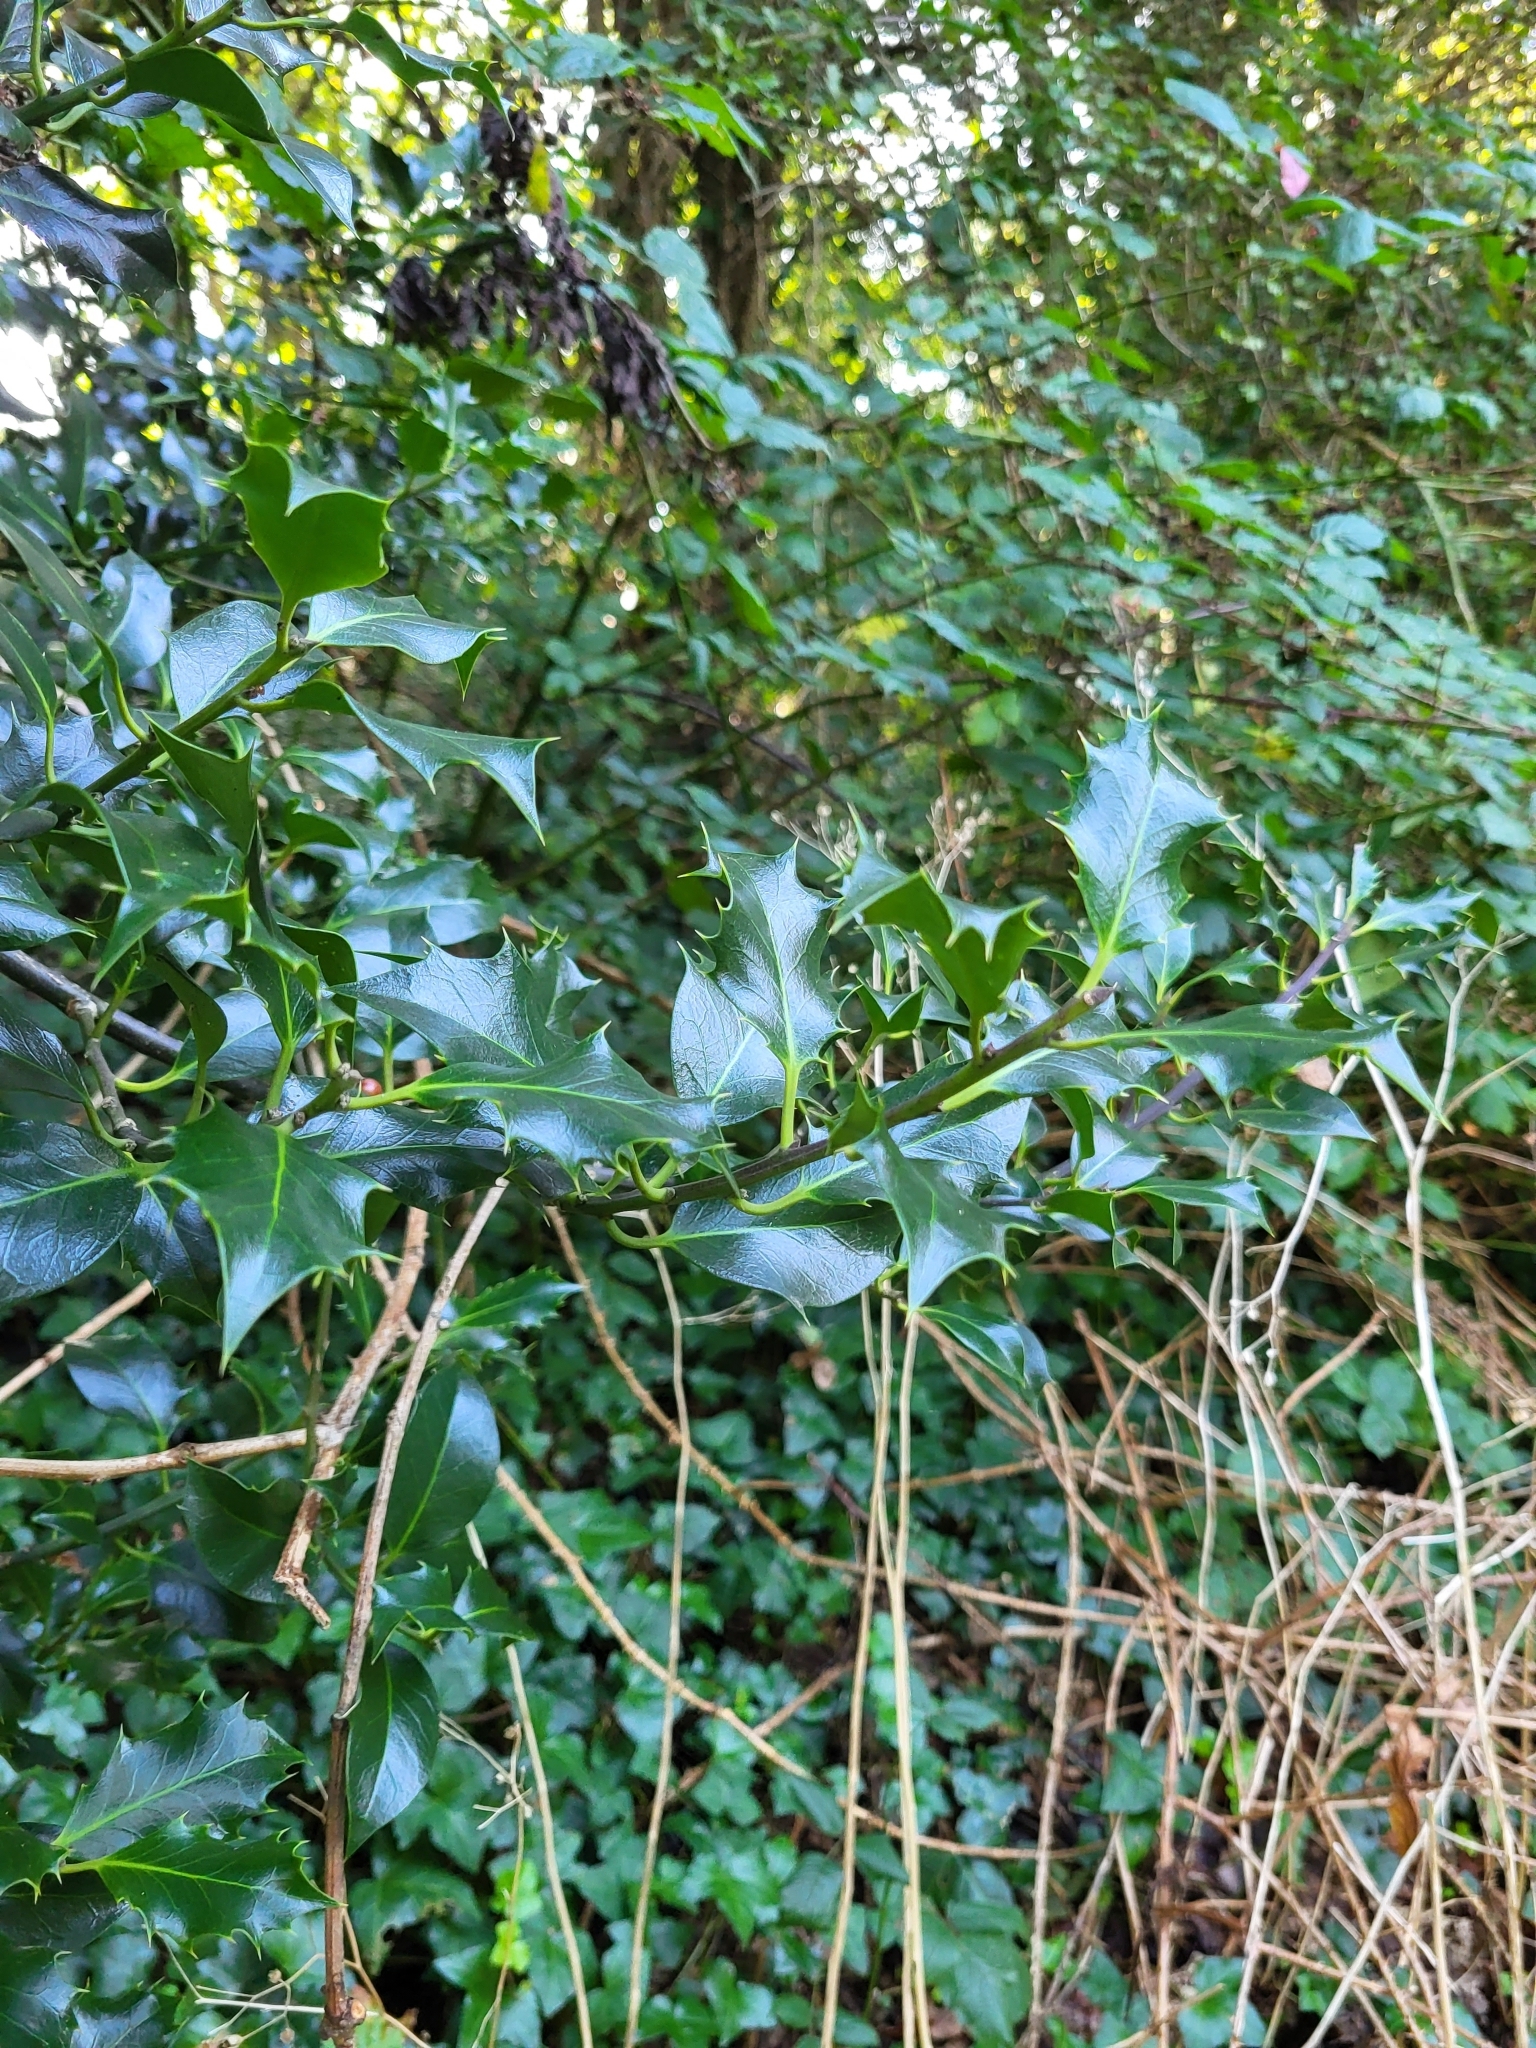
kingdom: Plantae
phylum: Tracheophyta
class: Magnoliopsida
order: Aquifoliales
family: Aquifoliaceae
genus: Ilex
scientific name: Ilex aquifolium
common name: English holly
